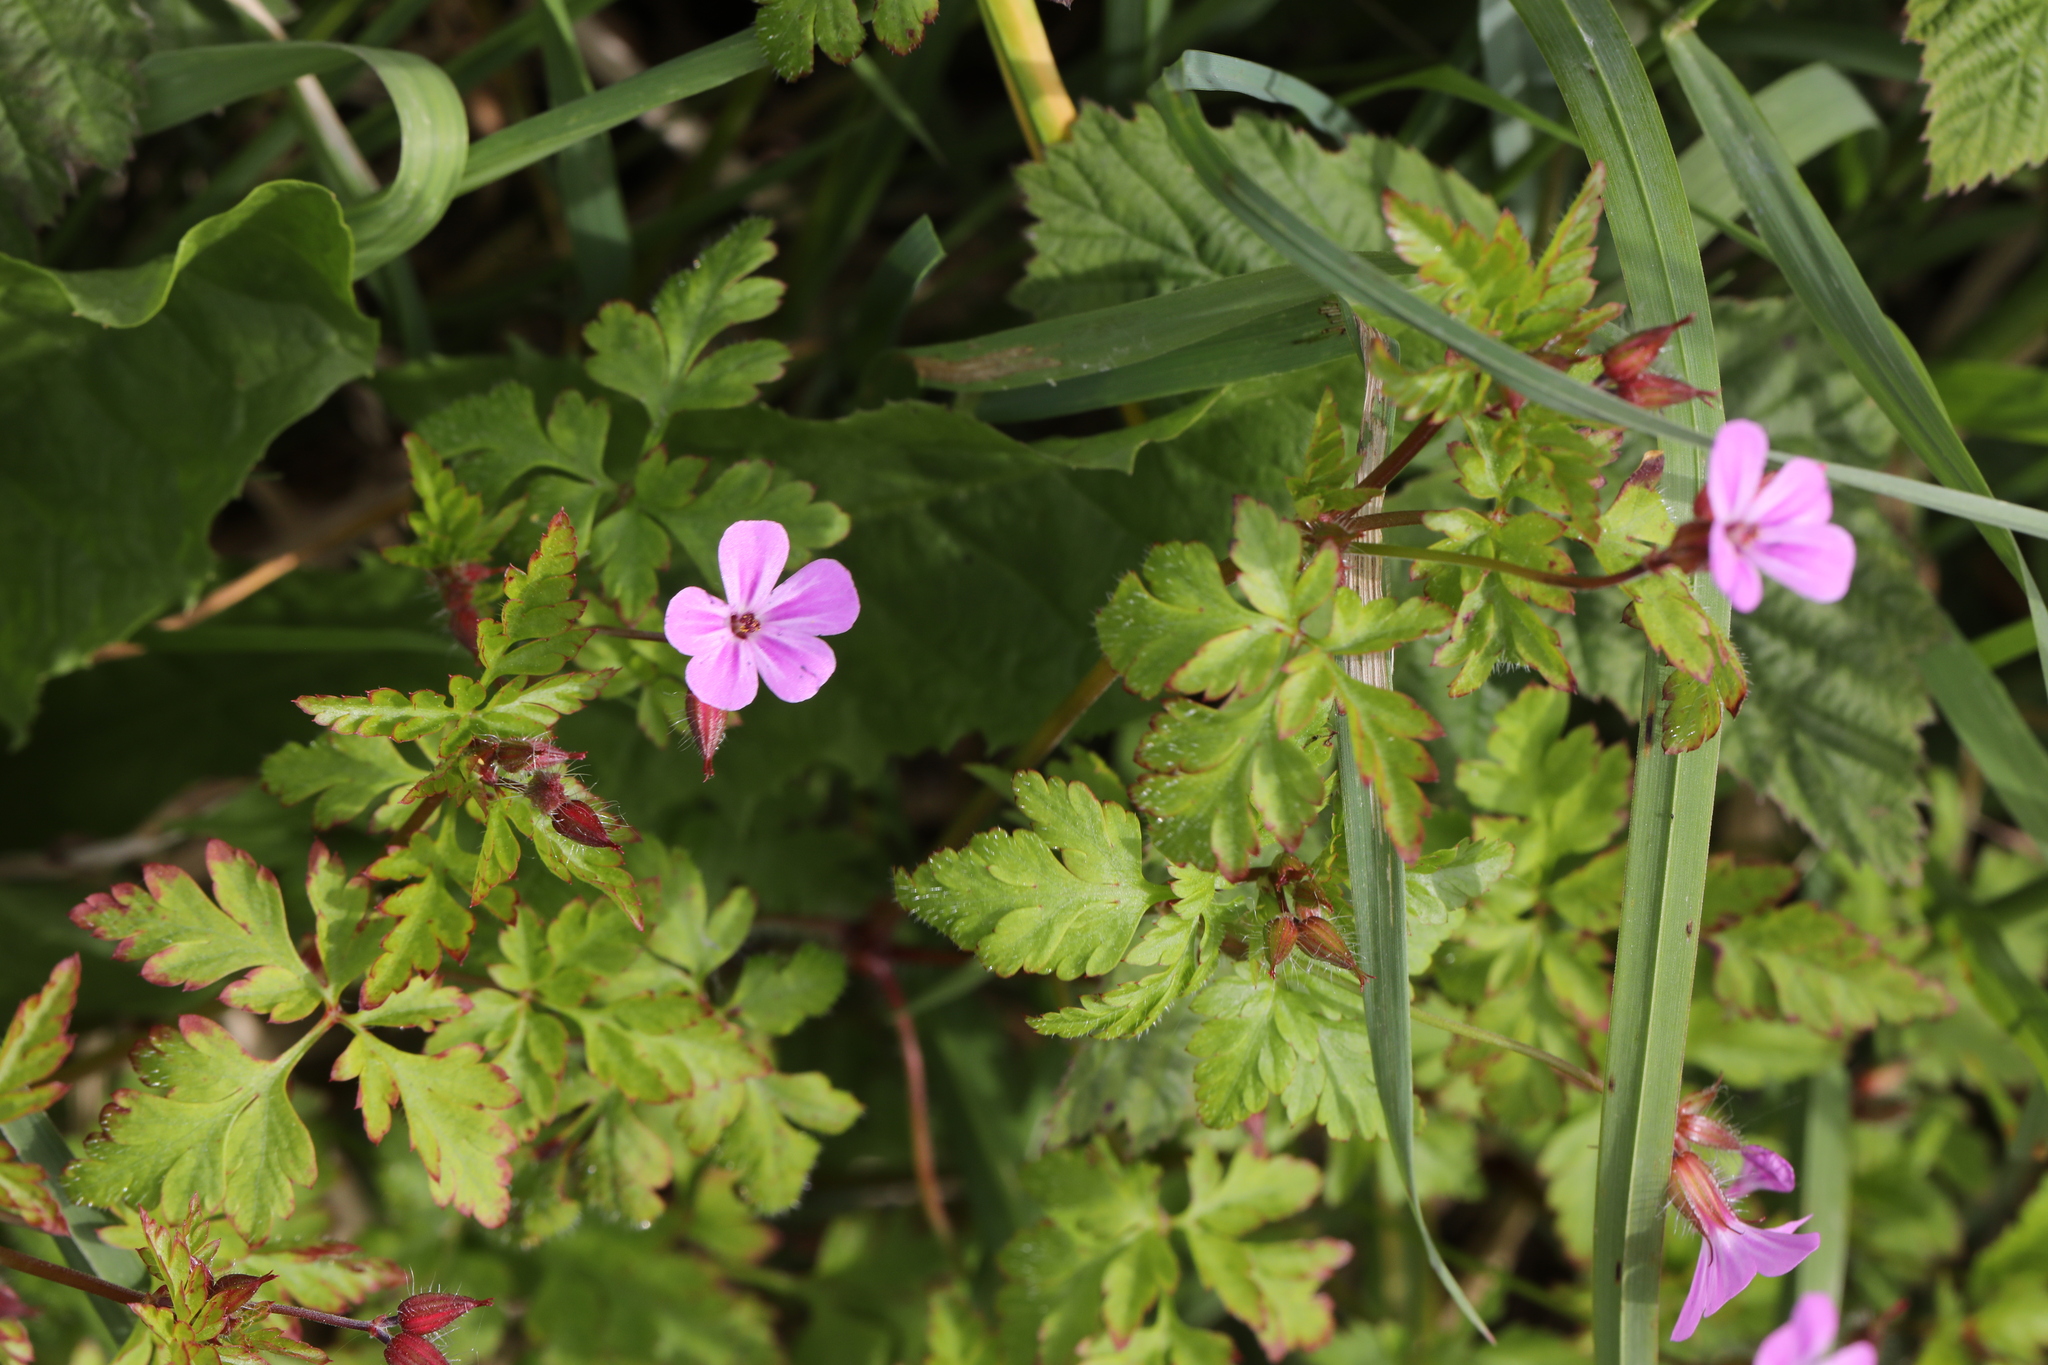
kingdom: Plantae
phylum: Tracheophyta
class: Magnoliopsida
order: Geraniales
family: Geraniaceae
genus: Geranium
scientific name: Geranium robertianum
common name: Herb-robert
